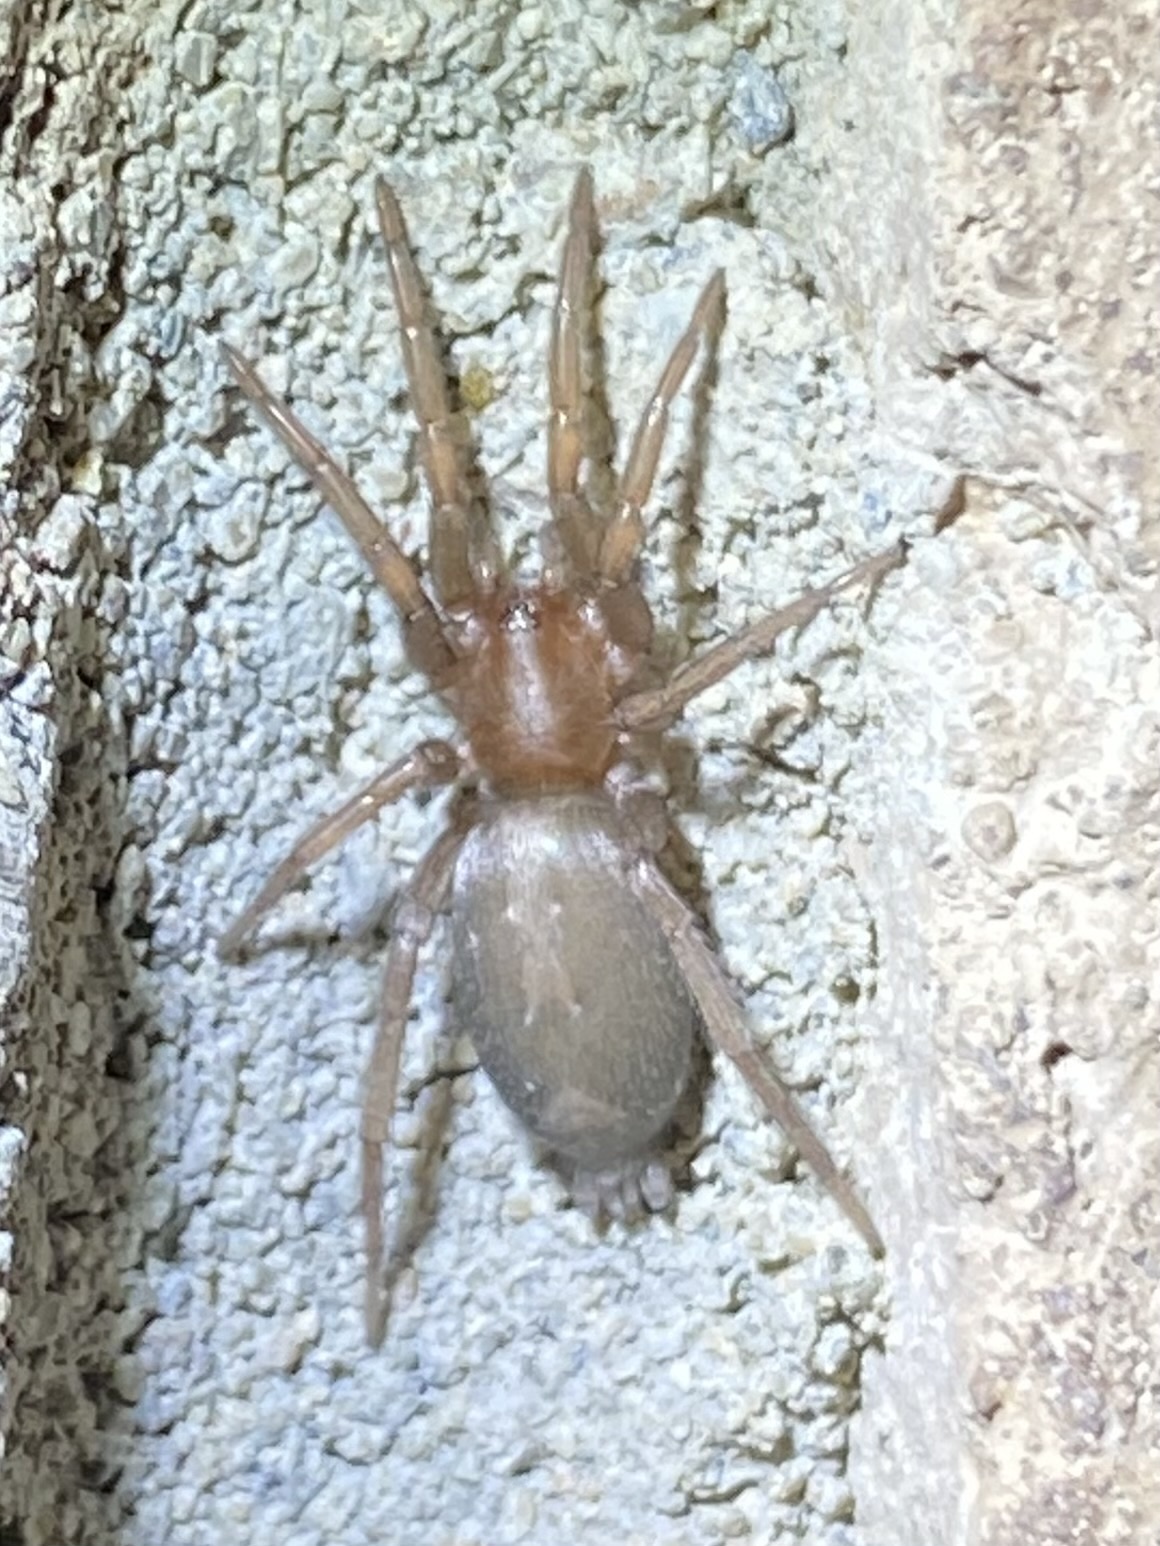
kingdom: Animalia
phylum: Arthropoda
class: Arachnida
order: Araneae
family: Gnaphosidae
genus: Herpyllus
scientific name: Herpyllus
